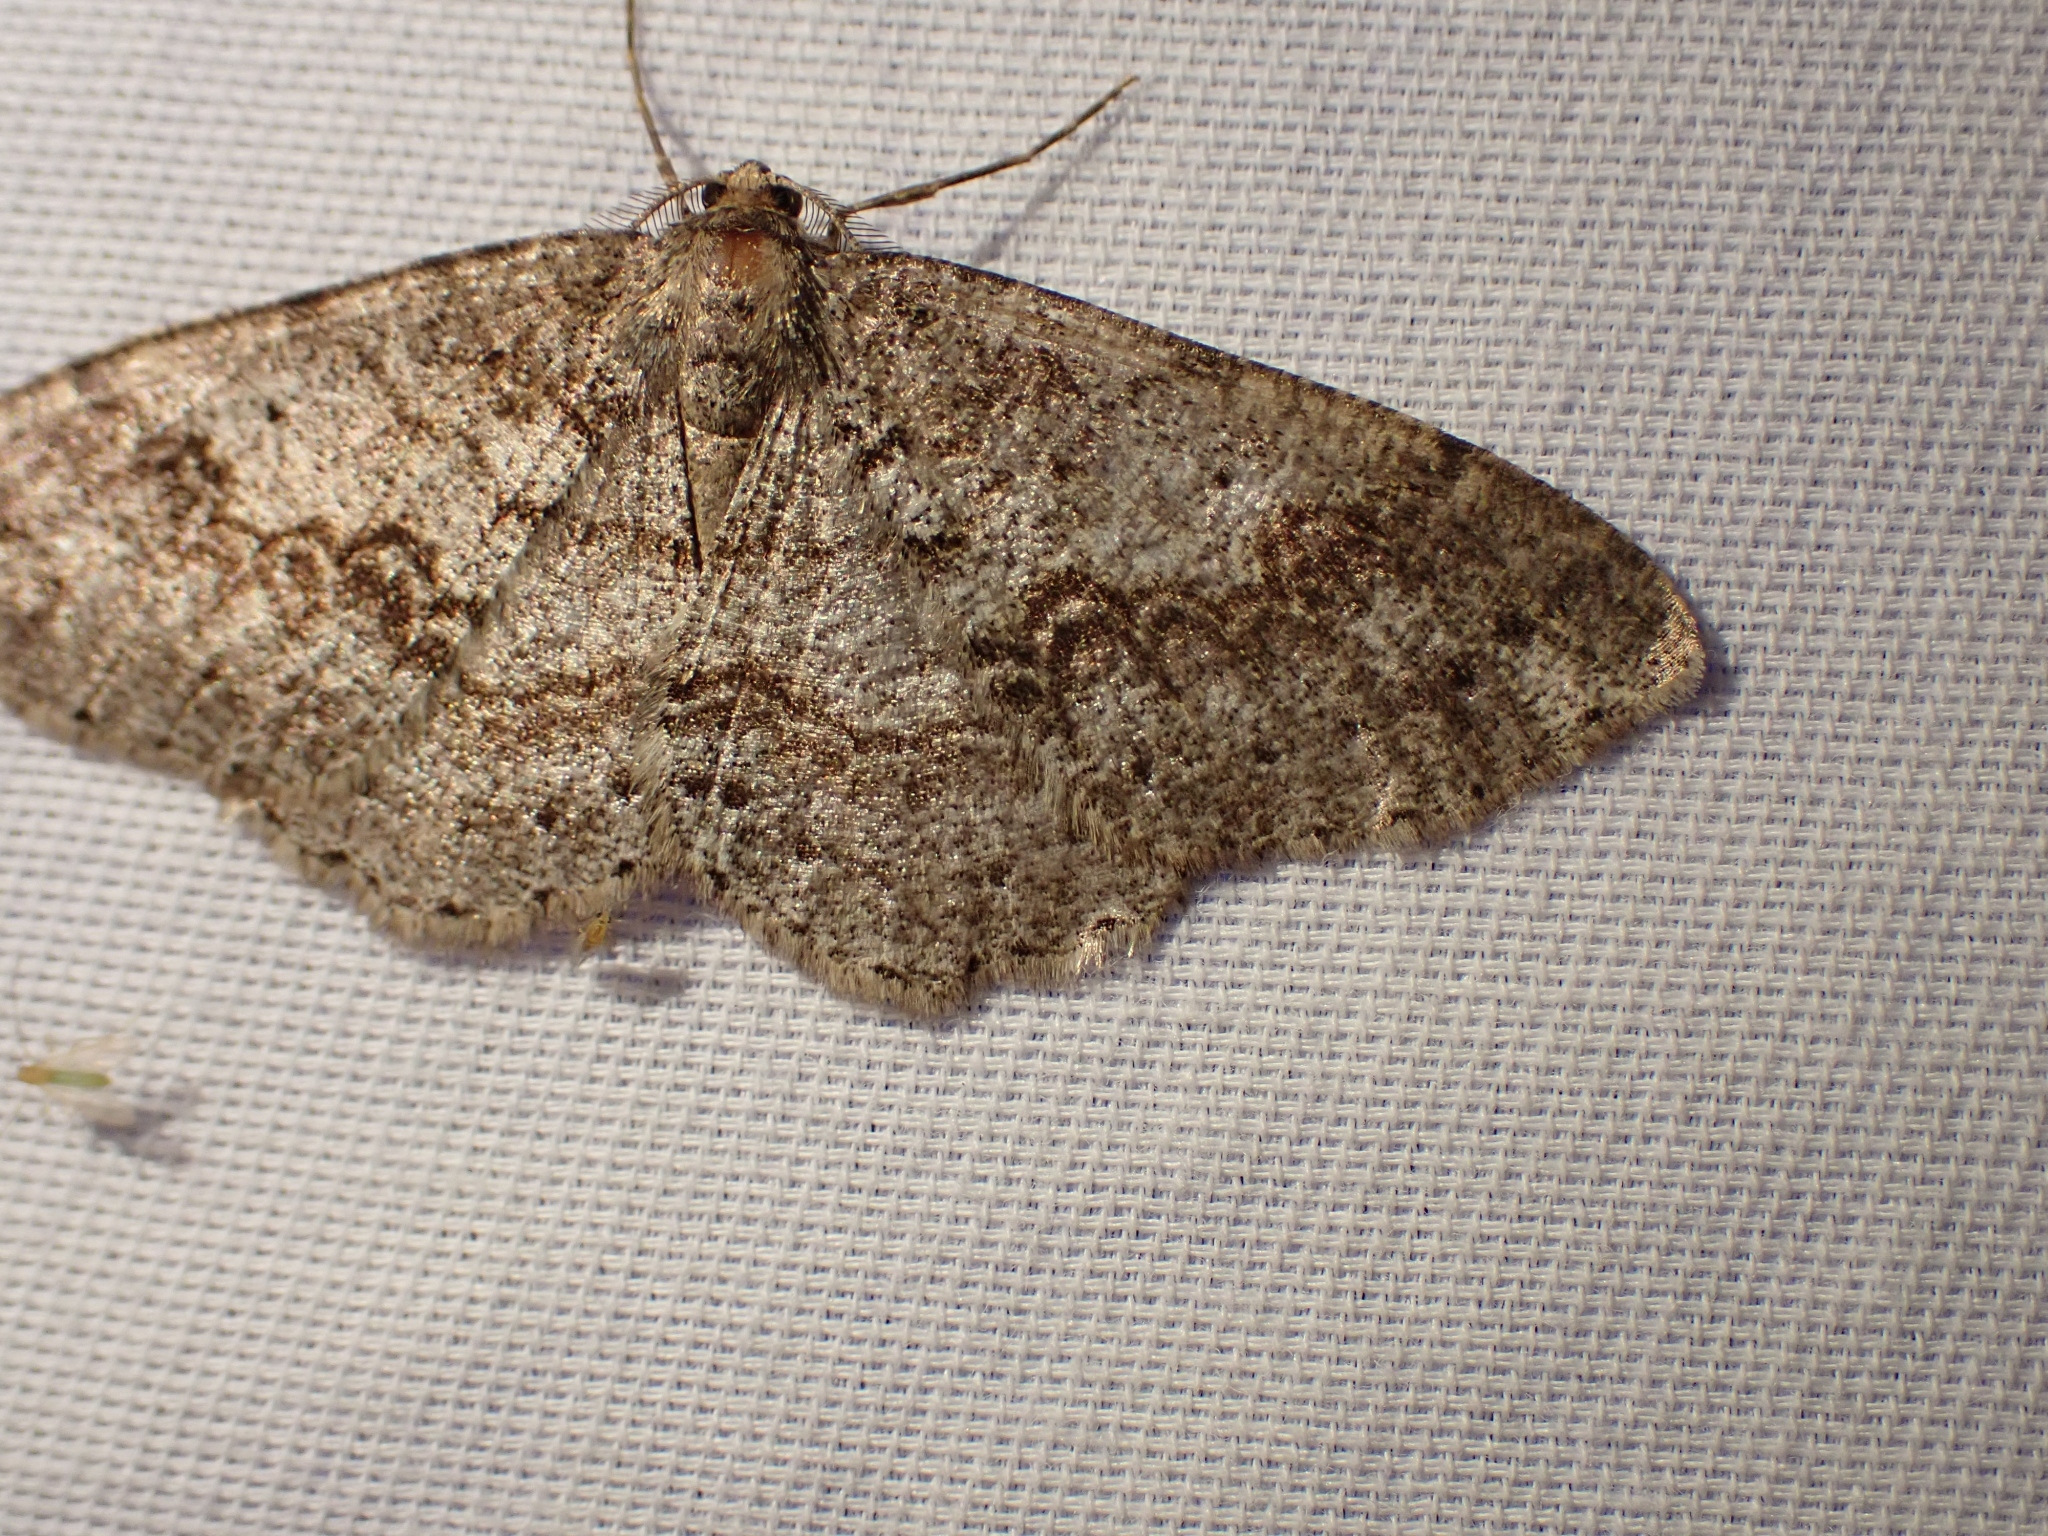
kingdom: Animalia
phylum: Arthropoda
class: Insecta
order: Lepidoptera
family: Geometridae
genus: Melanolophia
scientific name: Melanolophia imitata
